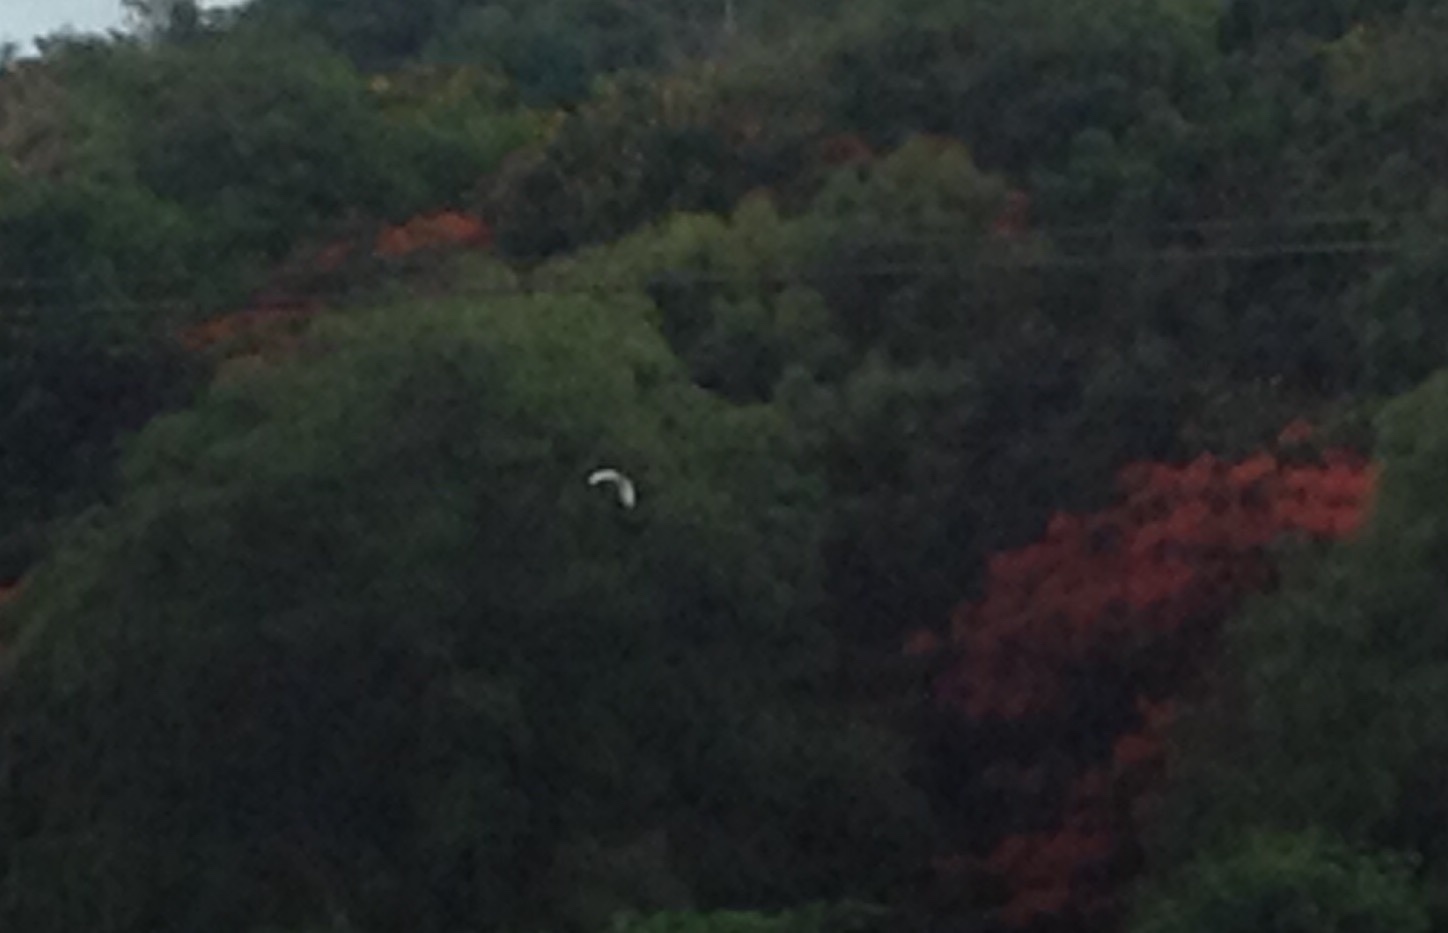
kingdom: Animalia
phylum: Chordata
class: Aves
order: Pelecaniformes
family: Ardeidae
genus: Bubulcus
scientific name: Bubulcus coromandus
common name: Eastern cattle egret
